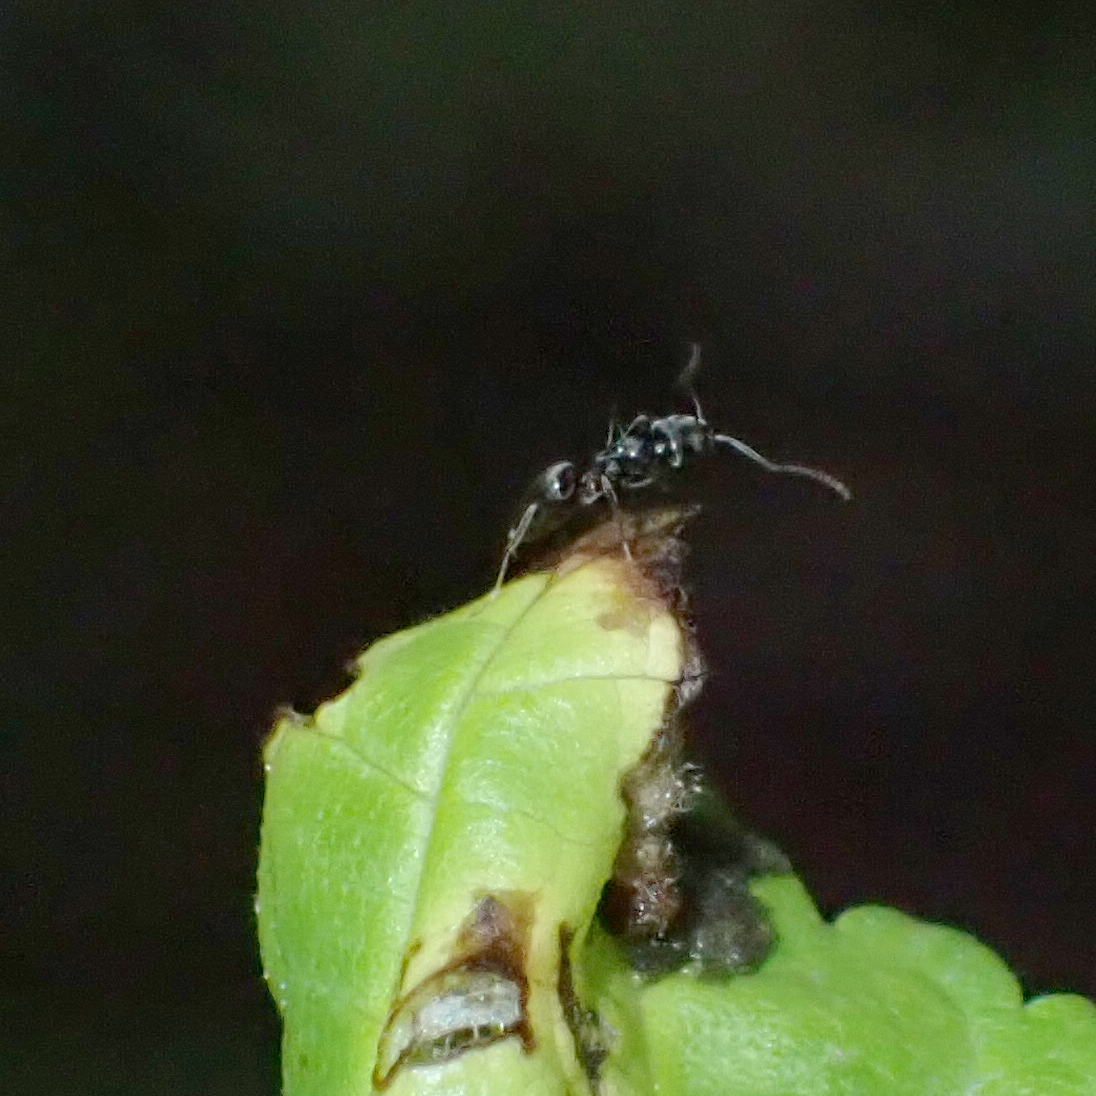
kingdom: Animalia
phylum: Arthropoda
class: Insecta
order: Hymenoptera
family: Formicidae
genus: Tapinoma
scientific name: Tapinoma sessile
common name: Odorous house ant
